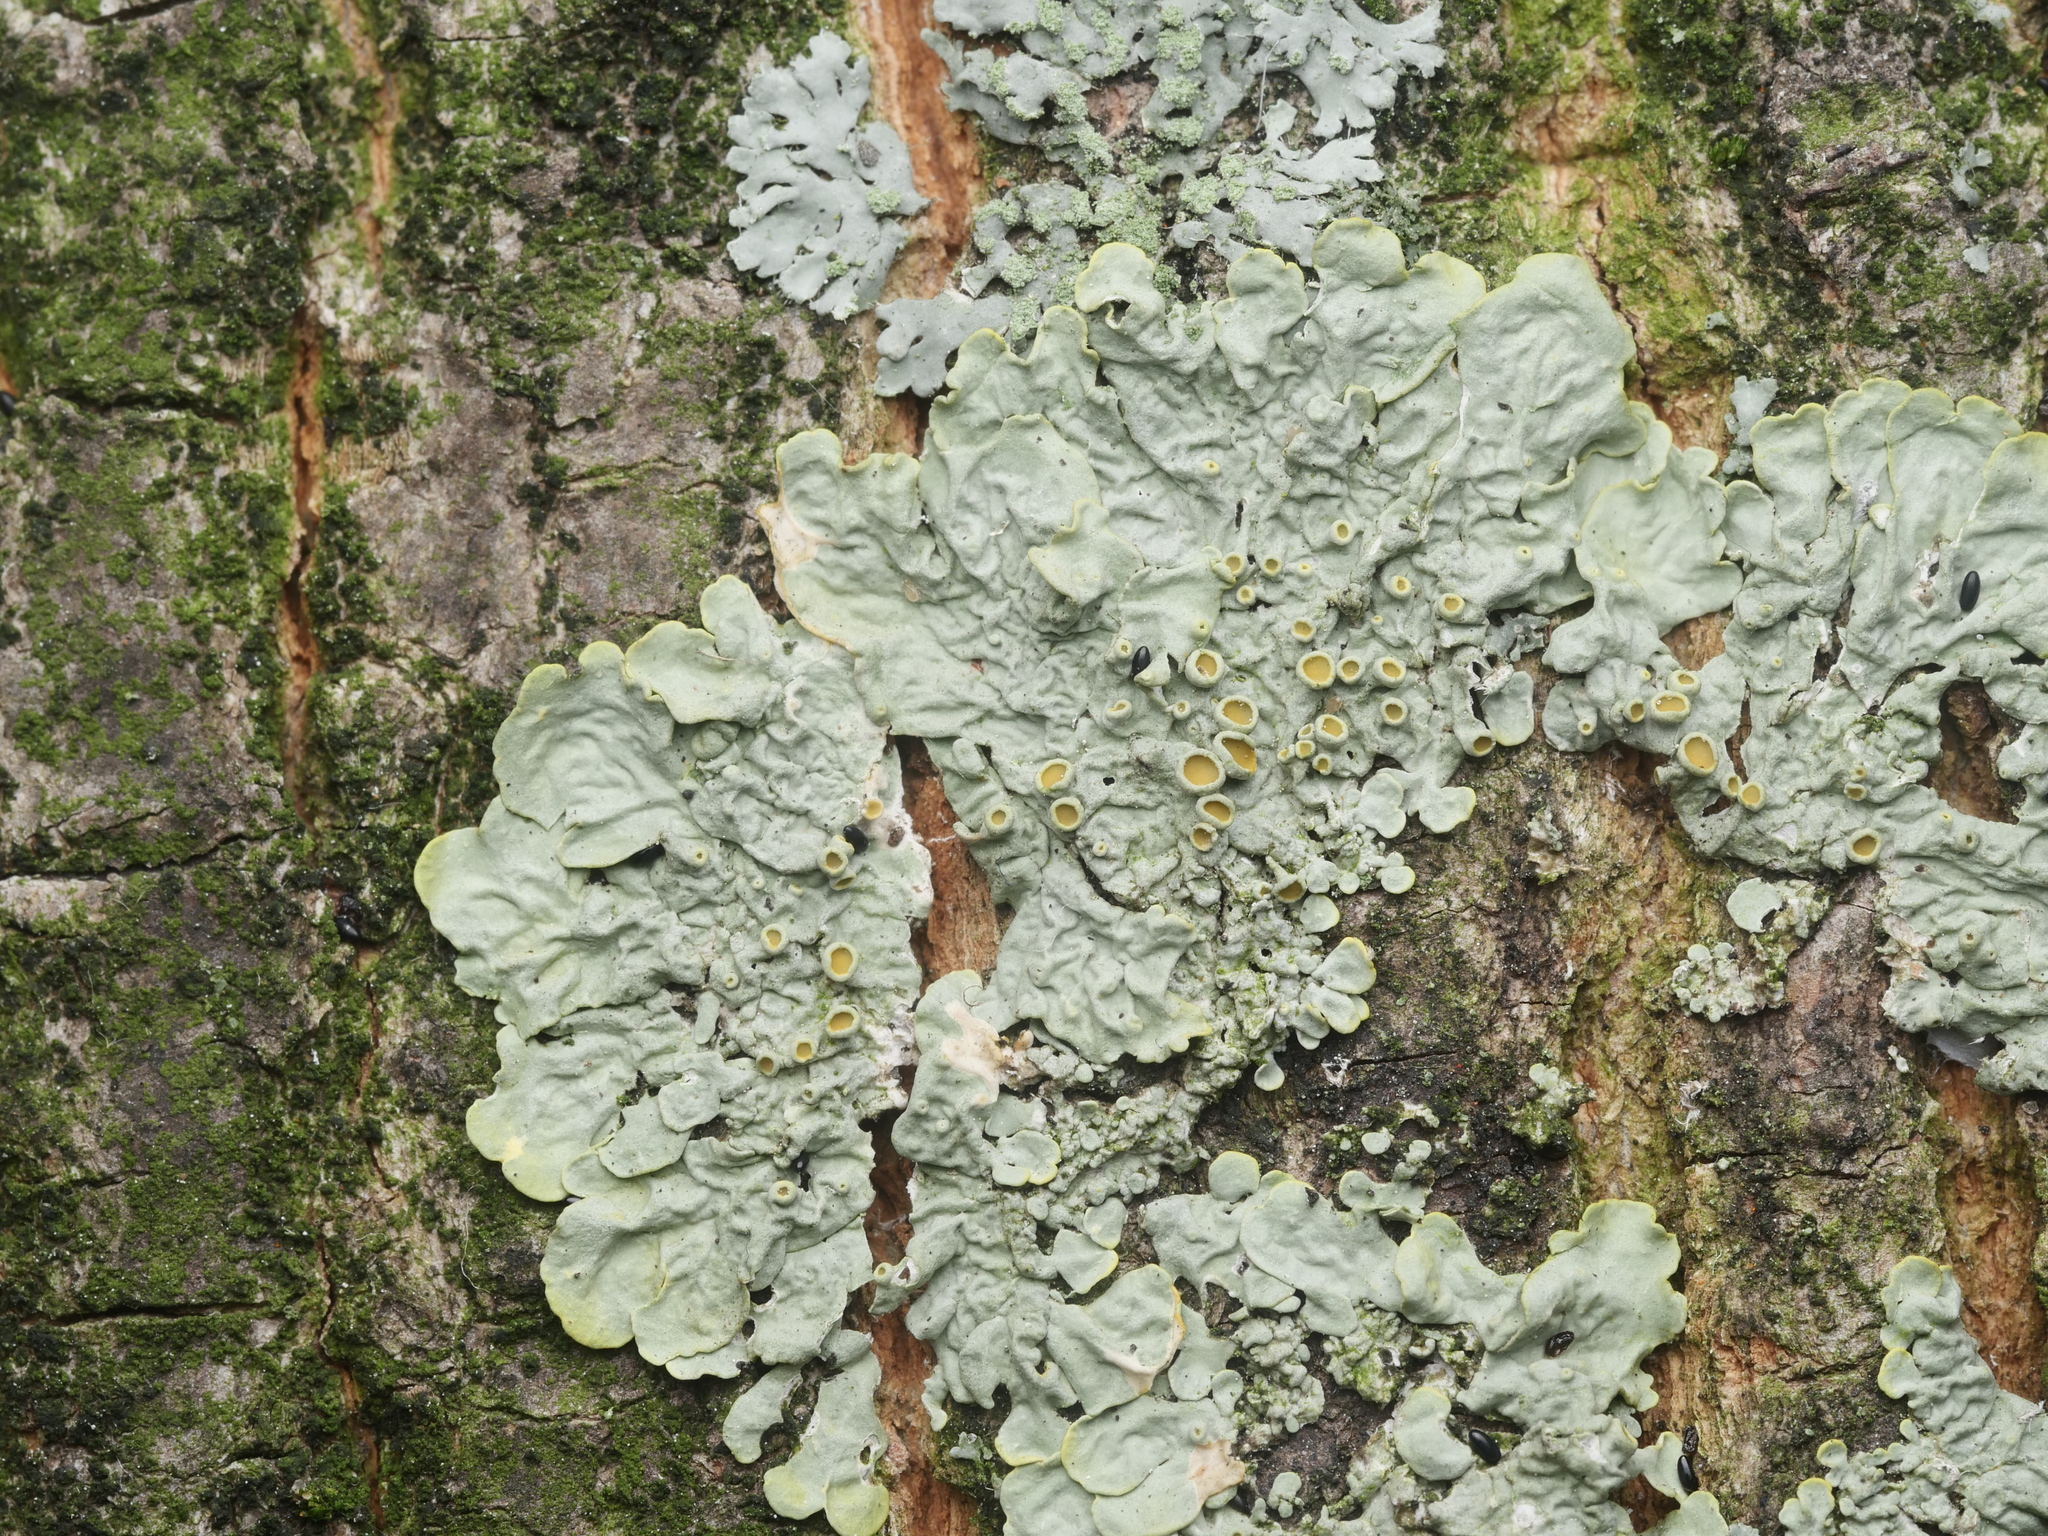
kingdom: Fungi
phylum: Ascomycota
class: Lecanoromycetes
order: Teloschistales
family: Teloschistaceae
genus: Xanthoria
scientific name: Xanthoria parietina
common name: Common orange lichen
